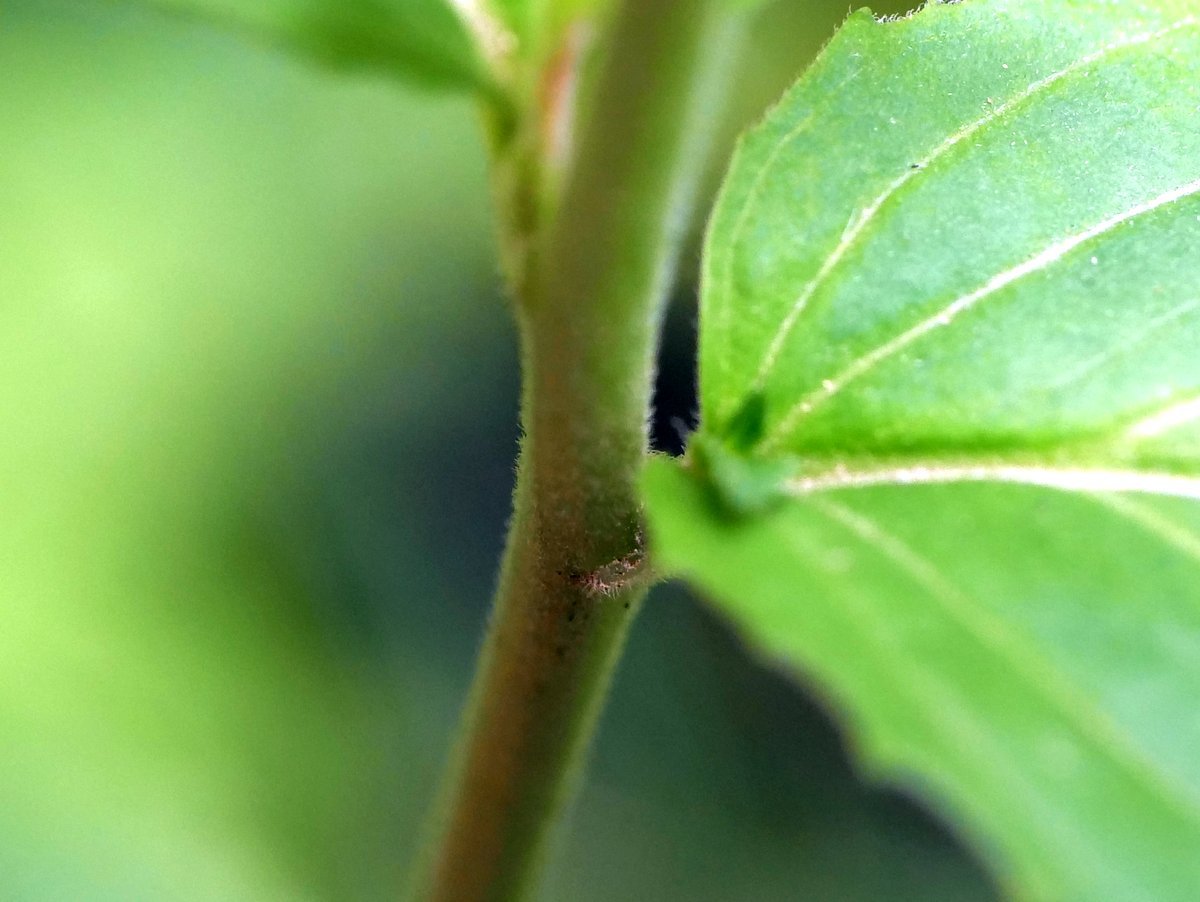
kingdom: Plantae
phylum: Tracheophyta
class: Magnoliopsida
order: Myrtales
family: Onagraceae
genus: Epilobium
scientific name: Epilobium montanum
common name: Broad-leaved willowherb
